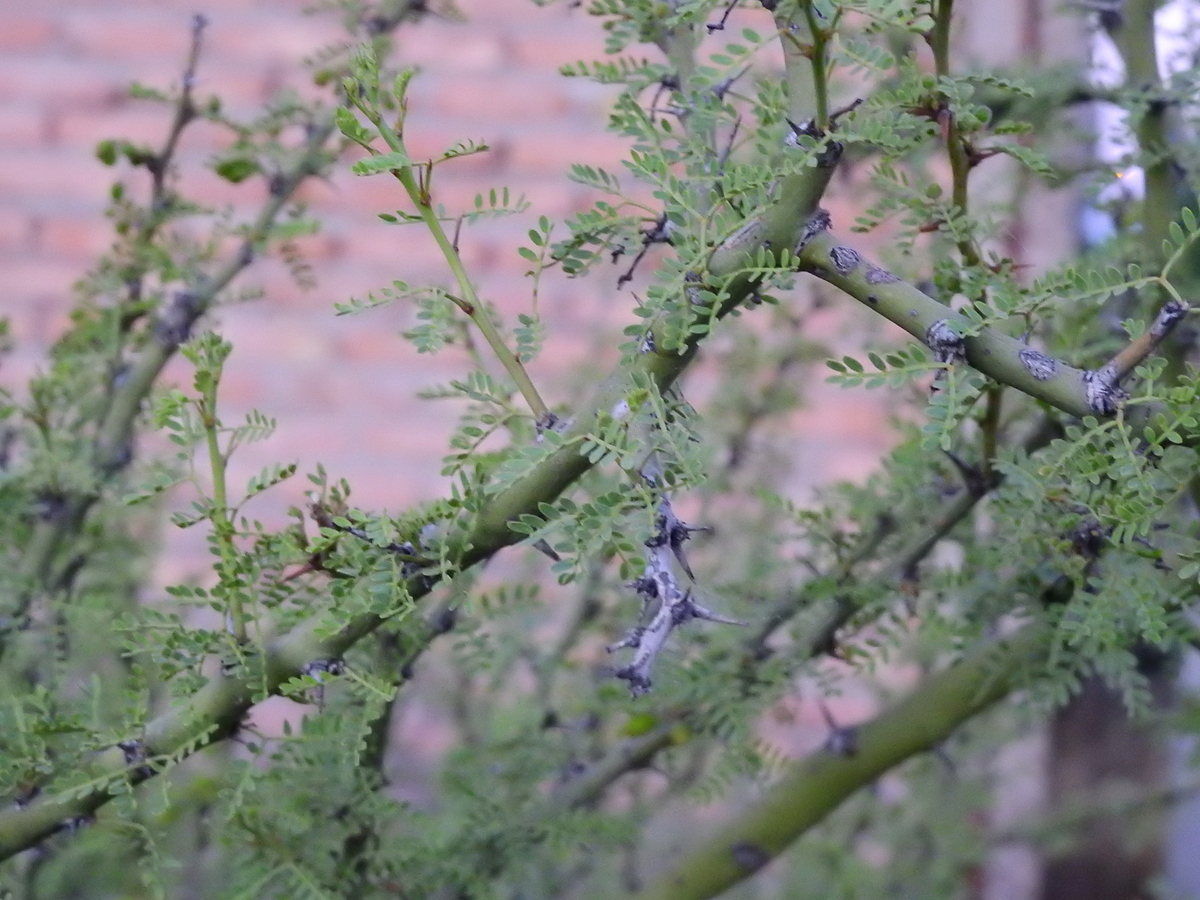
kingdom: Plantae
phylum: Tracheophyta
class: Magnoliopsida
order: Fabales
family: Fabaceae
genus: Parkinsonia
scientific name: Parkinsonia praecox
